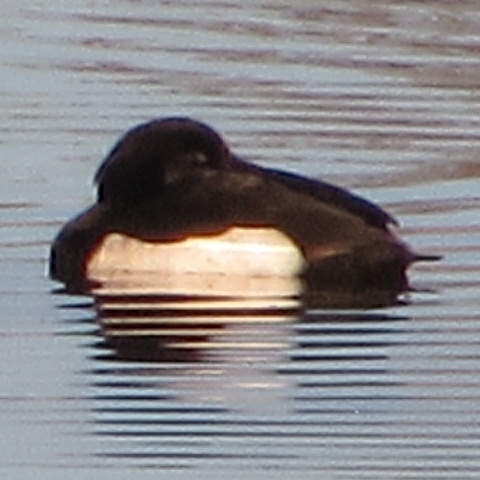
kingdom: Animalia
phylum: Chordata
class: Aves
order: Anseriformes
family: Anatidae
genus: Aythya
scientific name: Aythya fuligula
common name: Tufted duck
